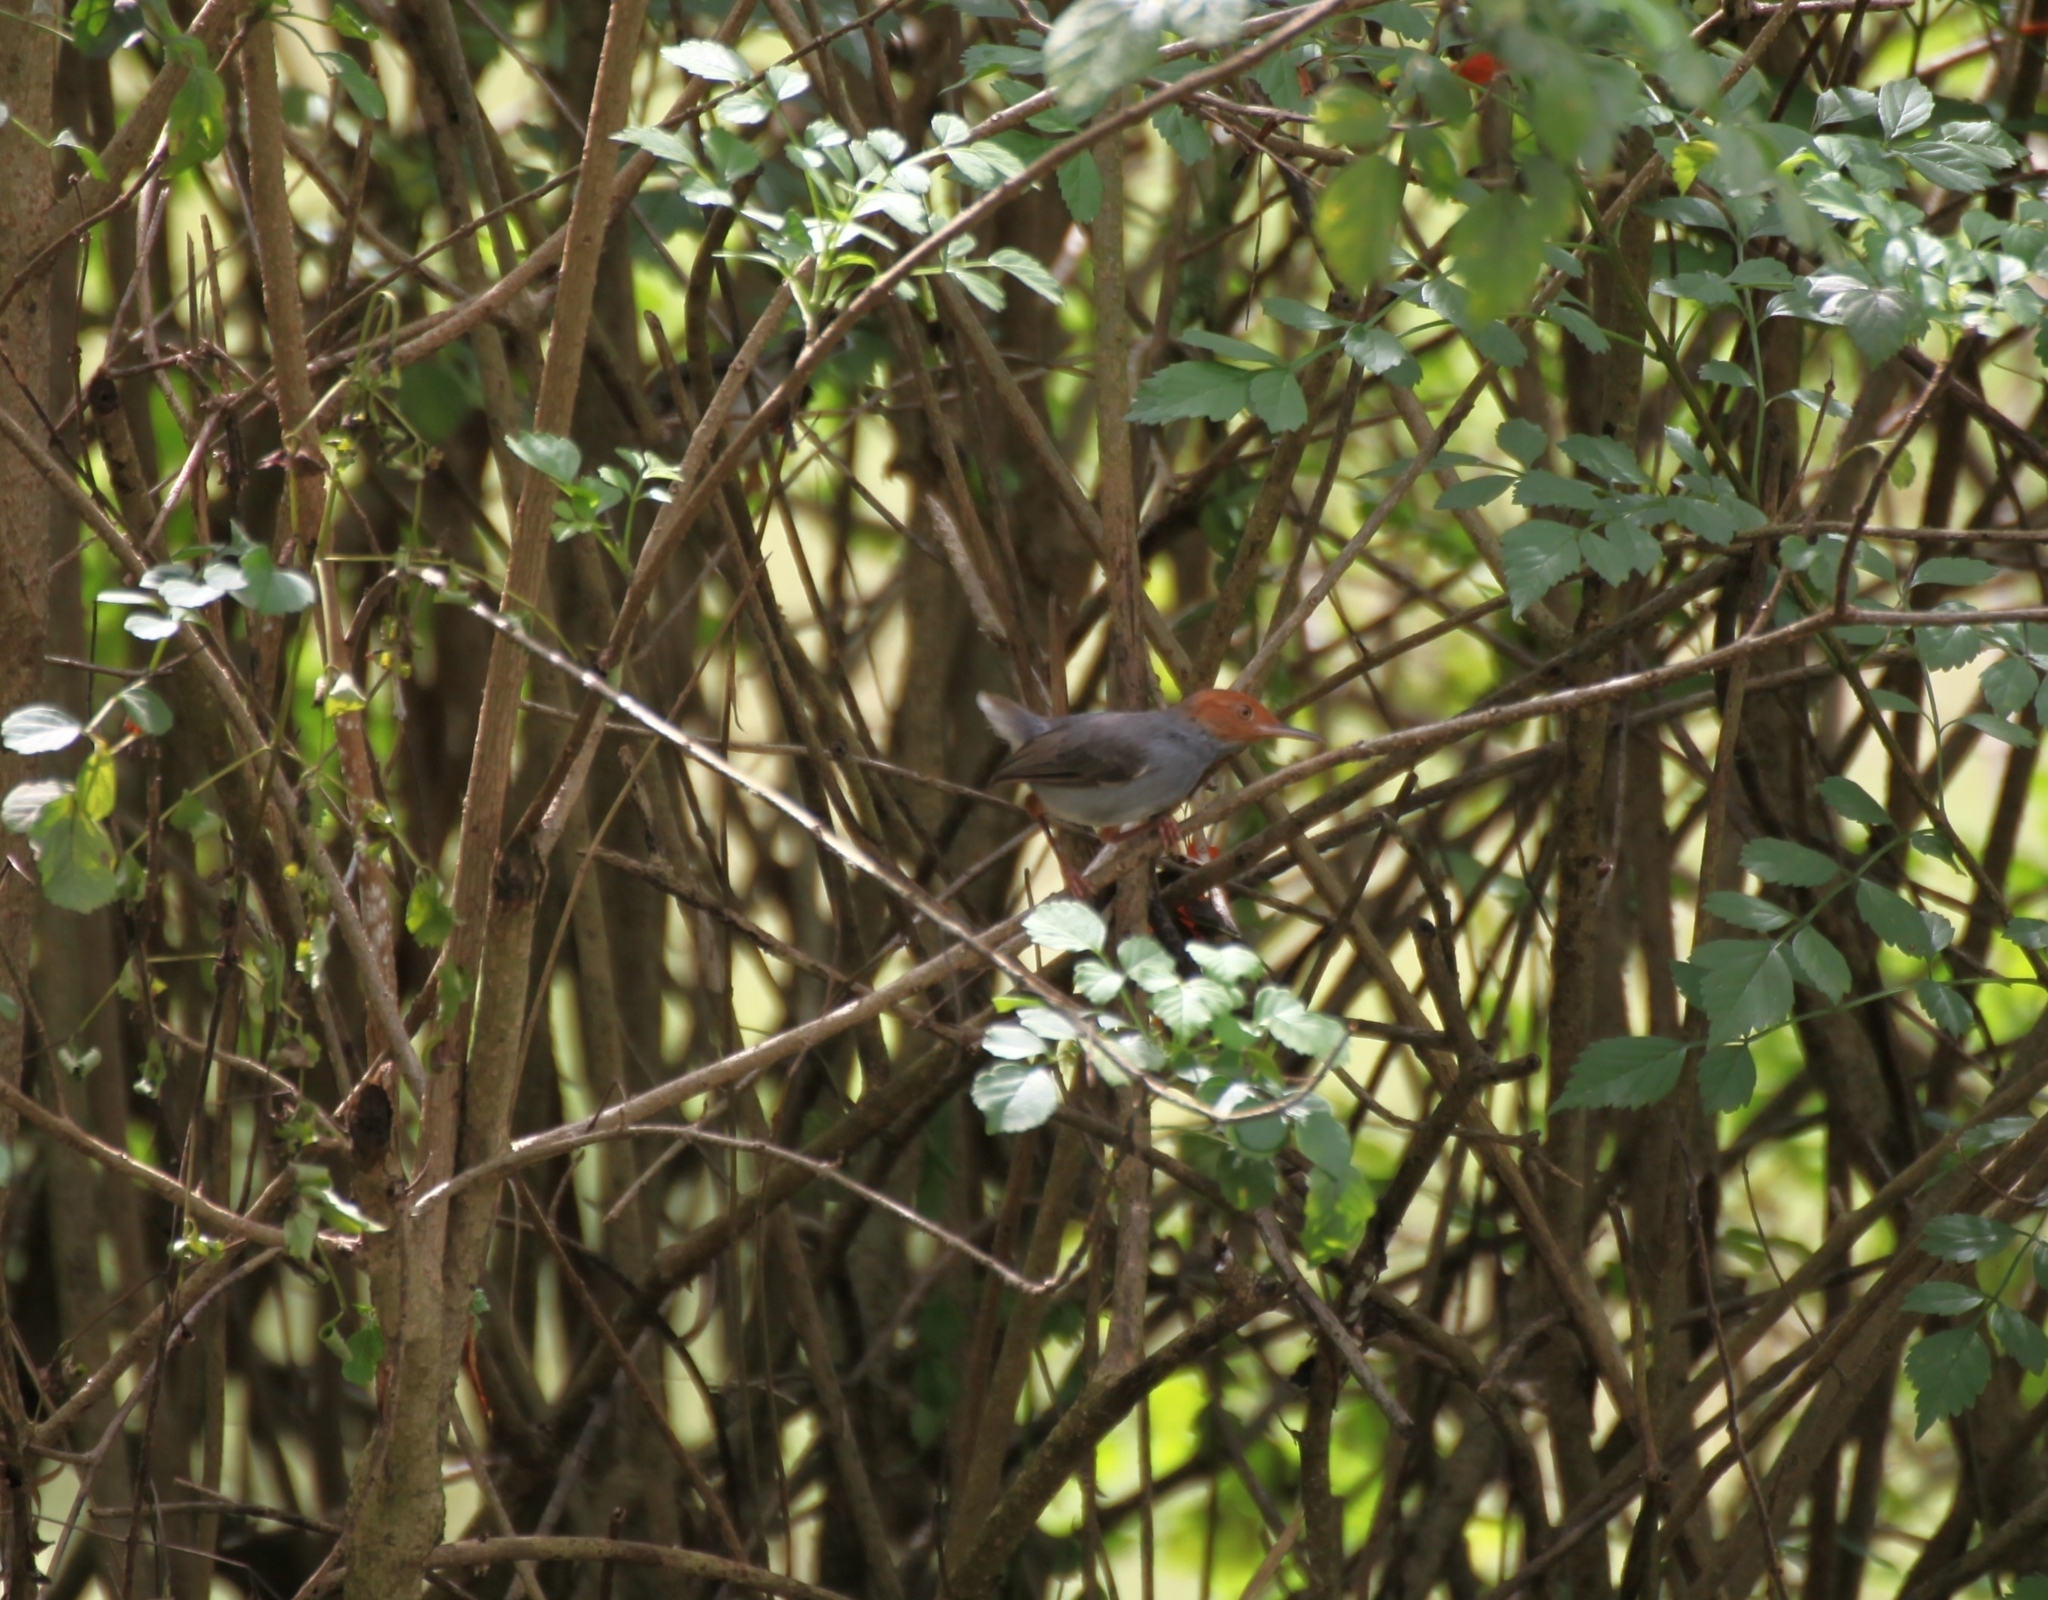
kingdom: Animalia
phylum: Chordata
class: Aves
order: Passeriformes
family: Cisticolidae
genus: Orthotomus
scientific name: Orthotomus ruficeps
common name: Ashy tailorbird
